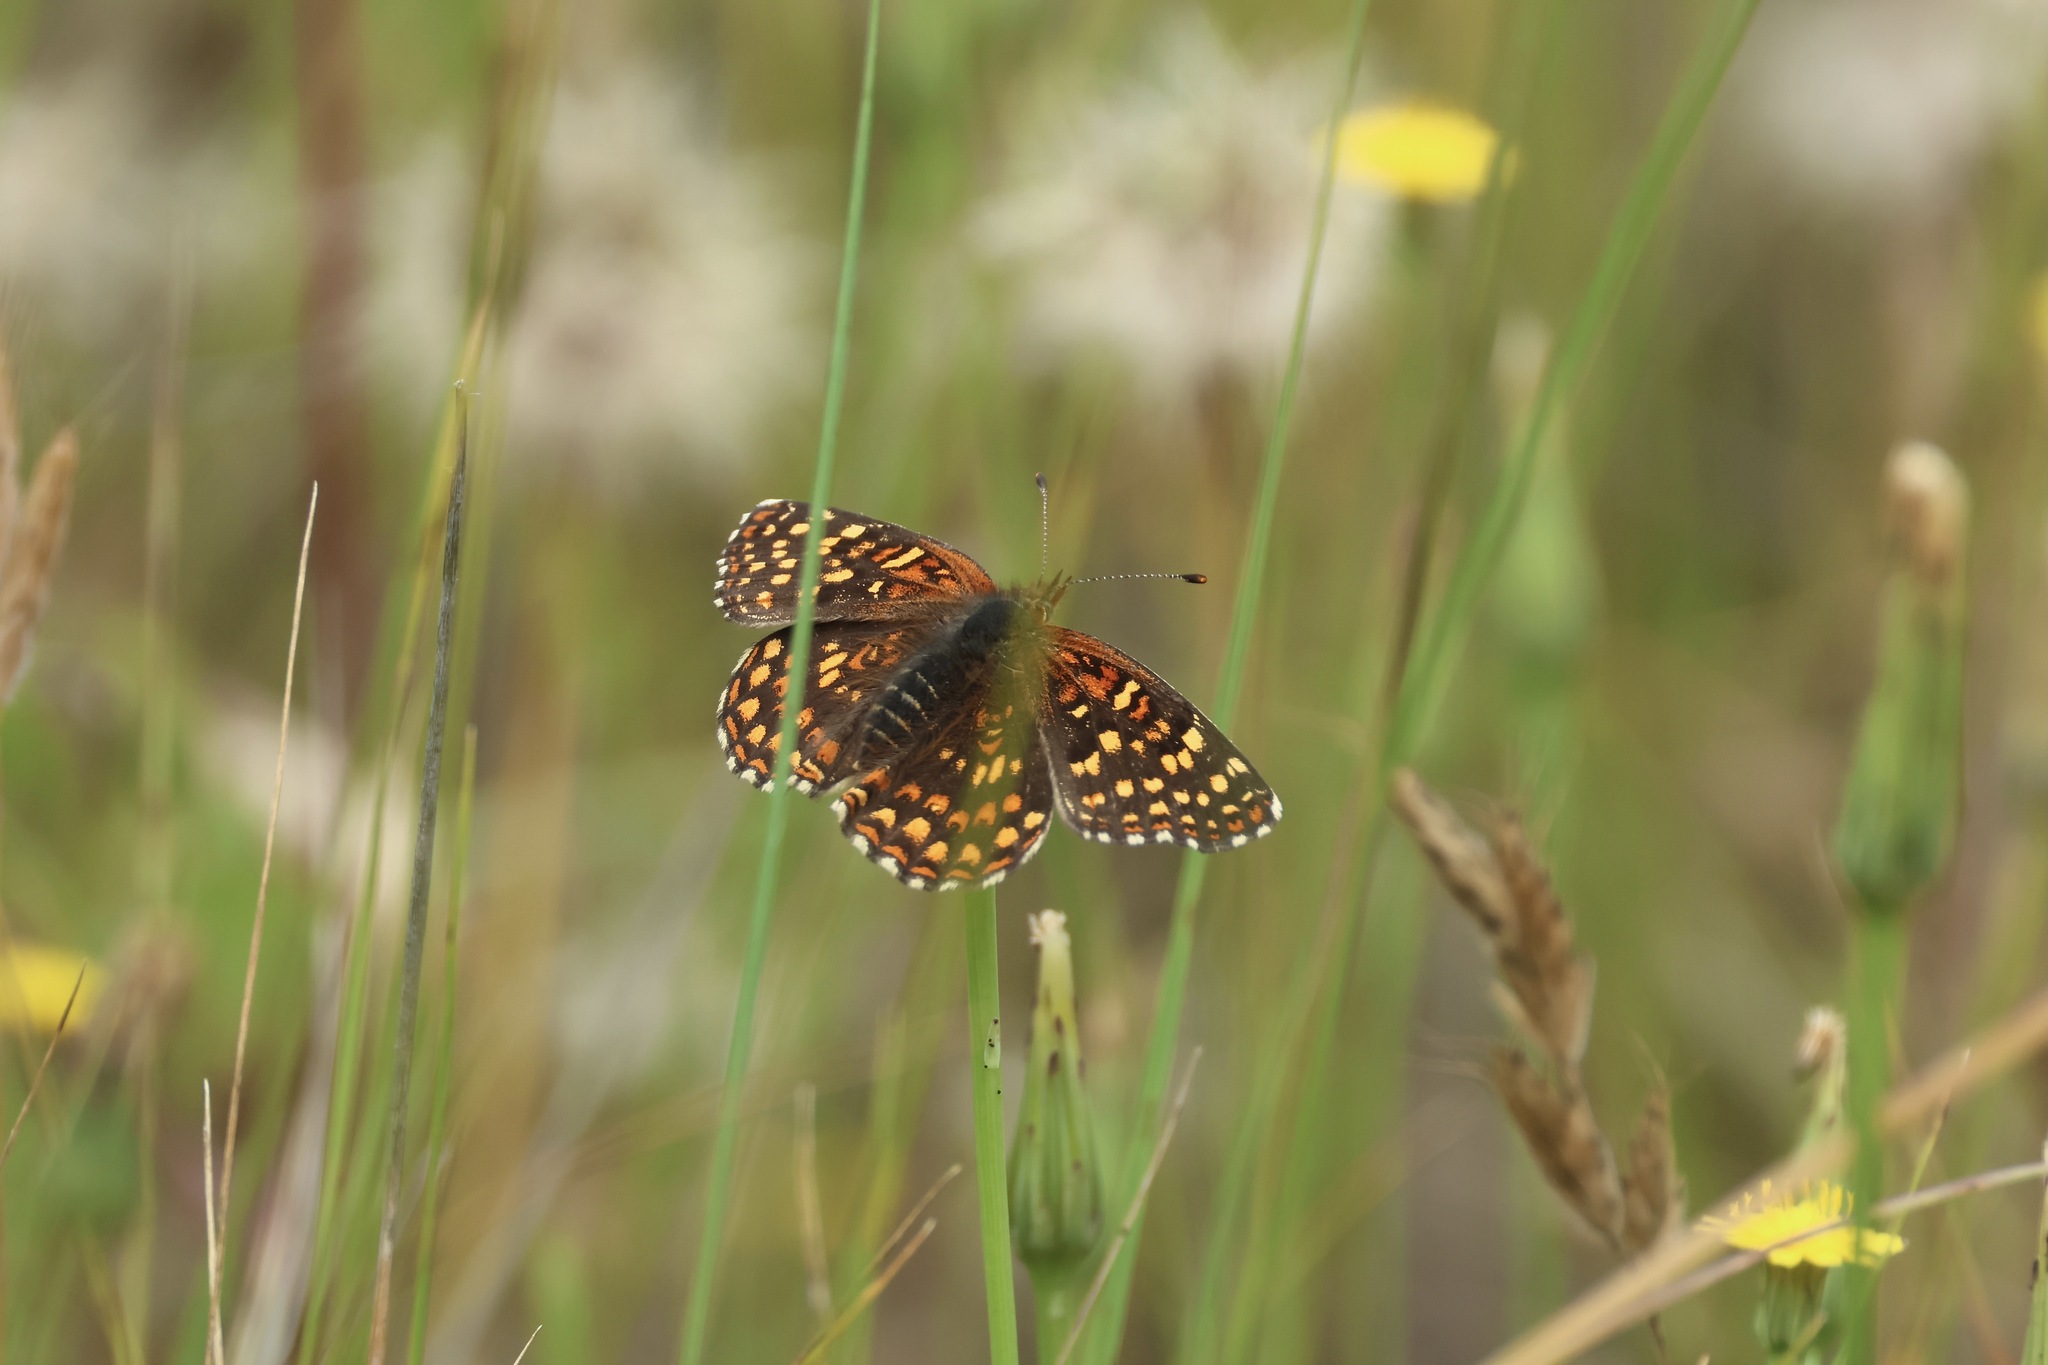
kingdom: Animalia
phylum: Arthropoda
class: Insecta
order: Lepidoptera
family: Nymphalidae
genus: Chlosyne
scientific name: Chlosyne gabbii
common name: Gabb's checkerspot
